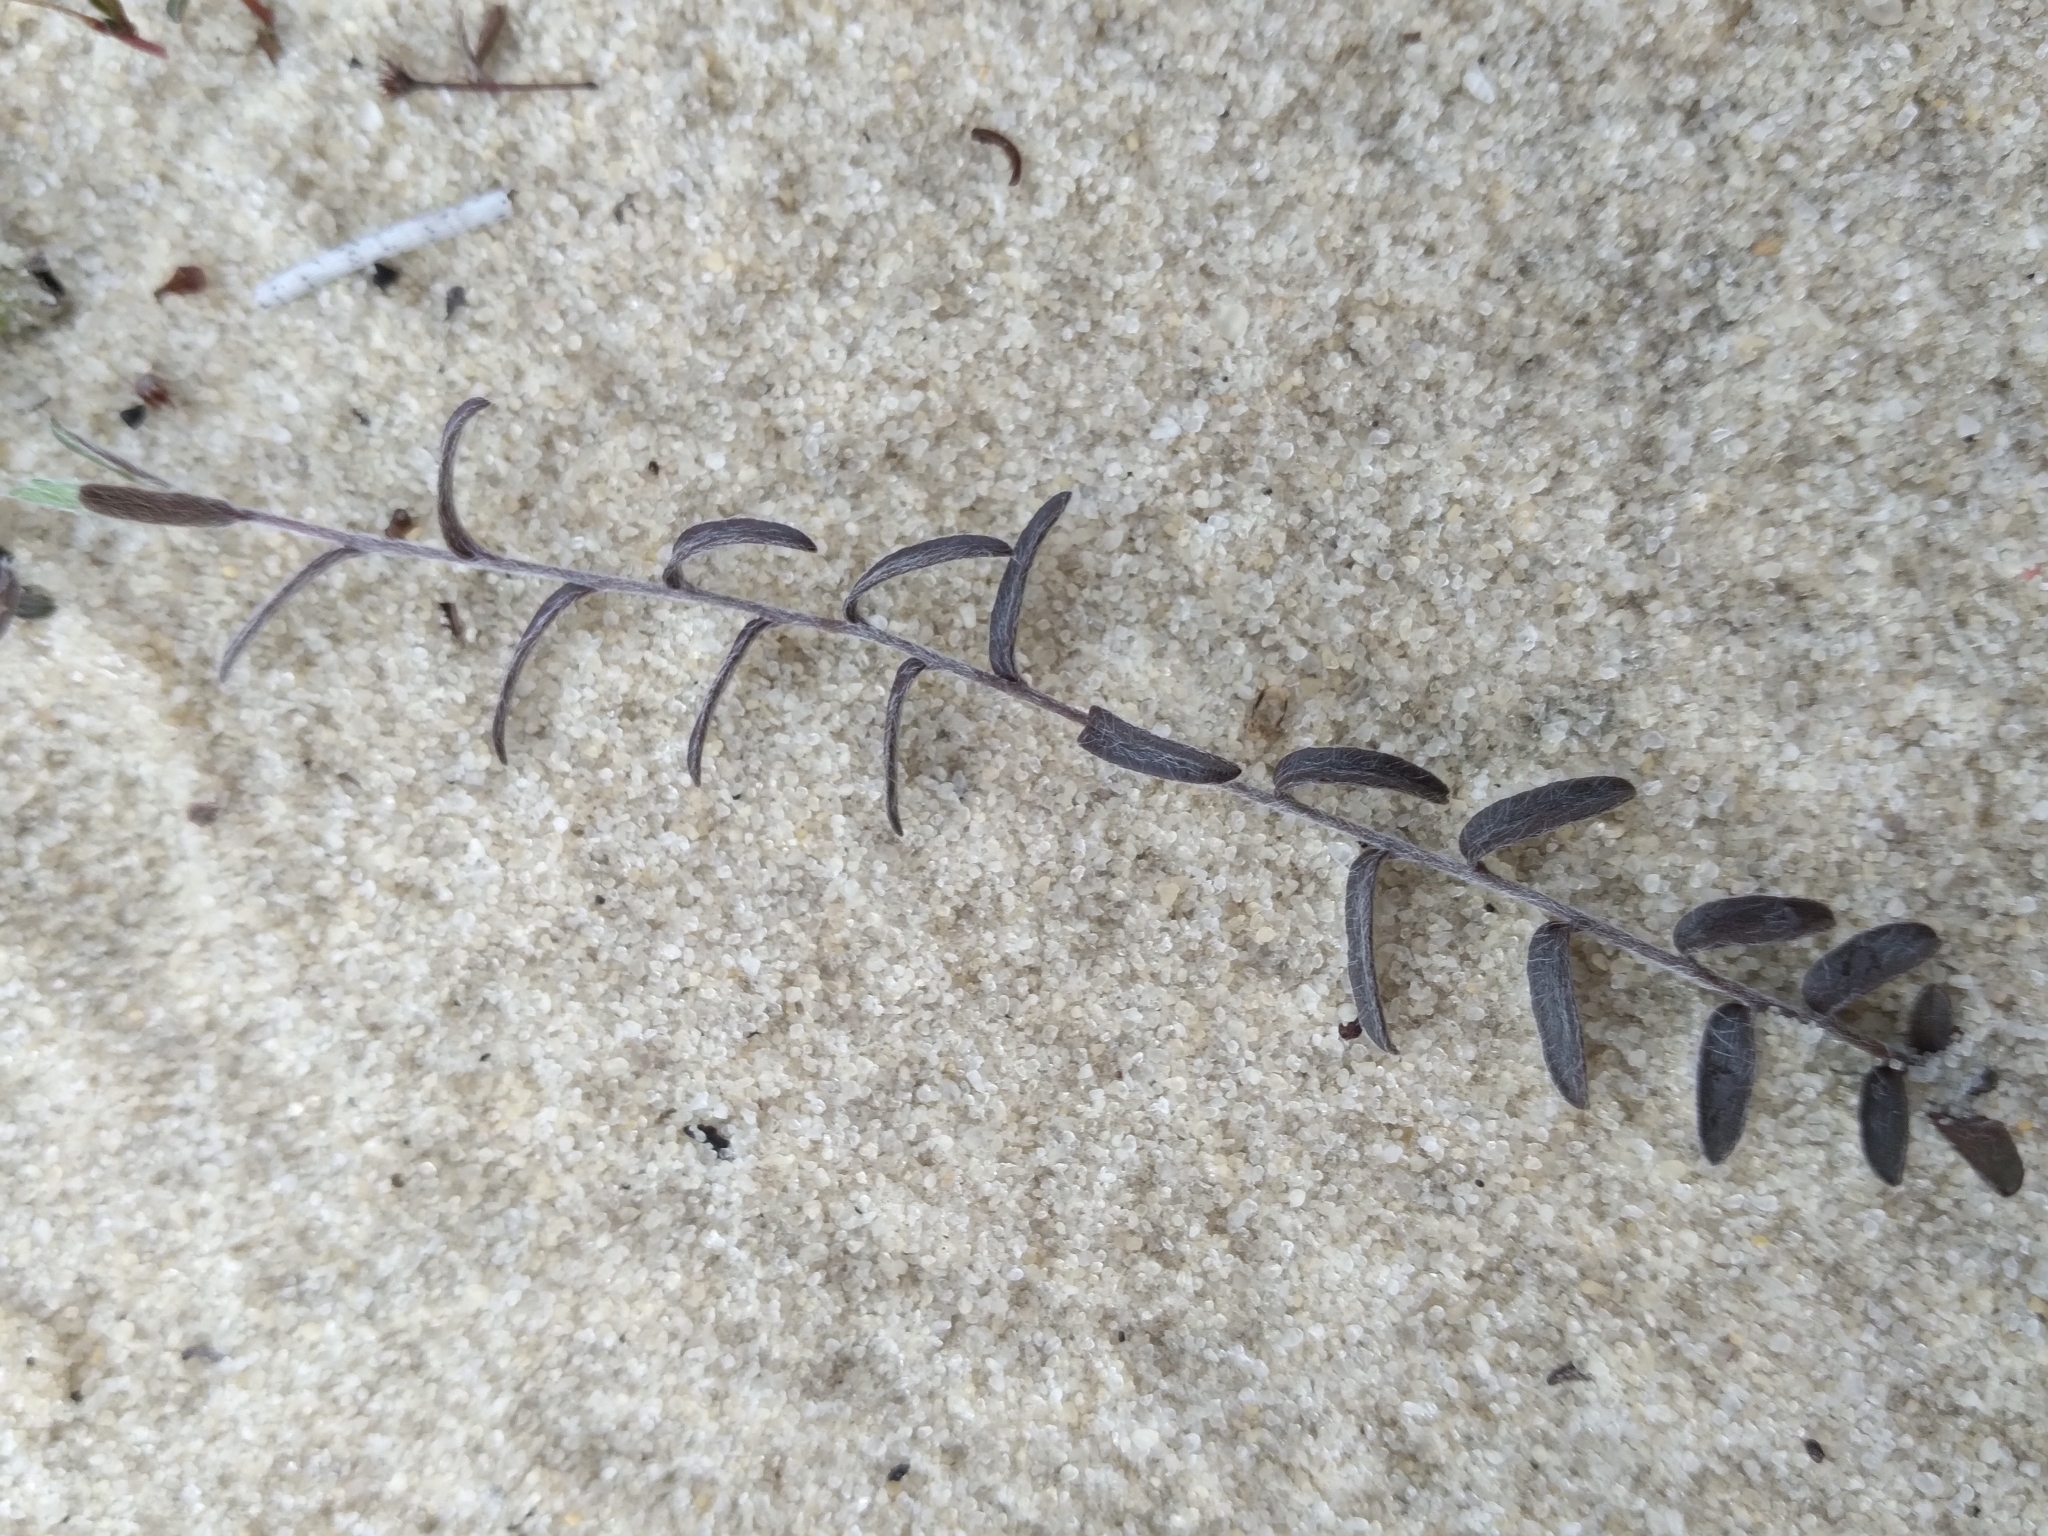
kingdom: Plantae
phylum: Tracheophyta
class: Magnoliopsida
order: Solanales
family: Convolvulaceae
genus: Stylisma
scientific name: Stylisma abdita
